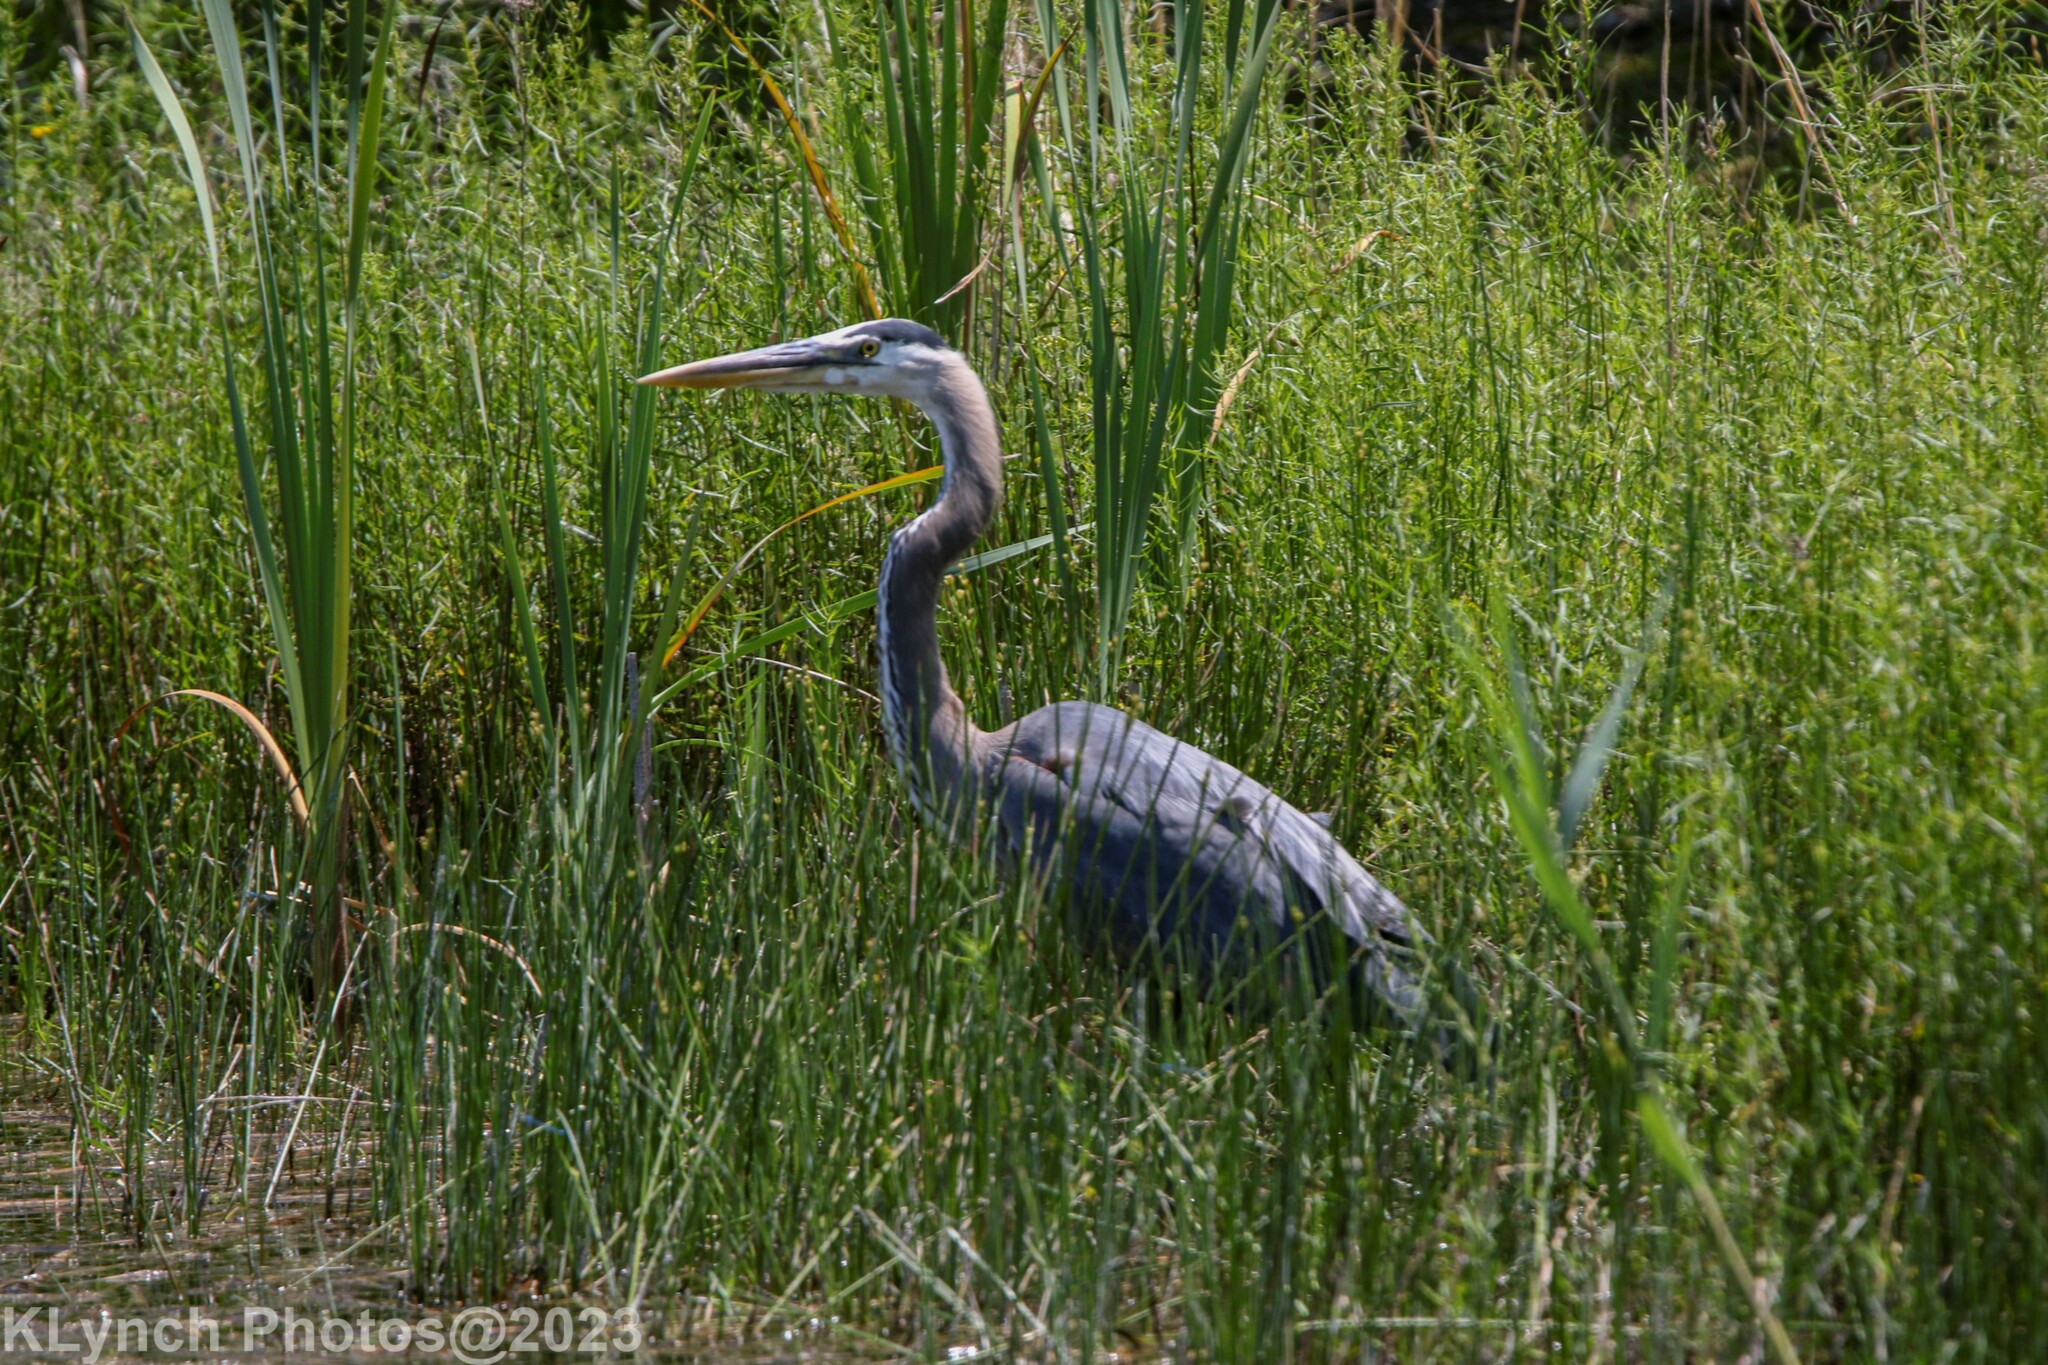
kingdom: Animalia
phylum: Chordata
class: Aves
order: Pelecaniformes
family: Ardeidae
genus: Ardea
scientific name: Ardea herodias
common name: Great blue heron
